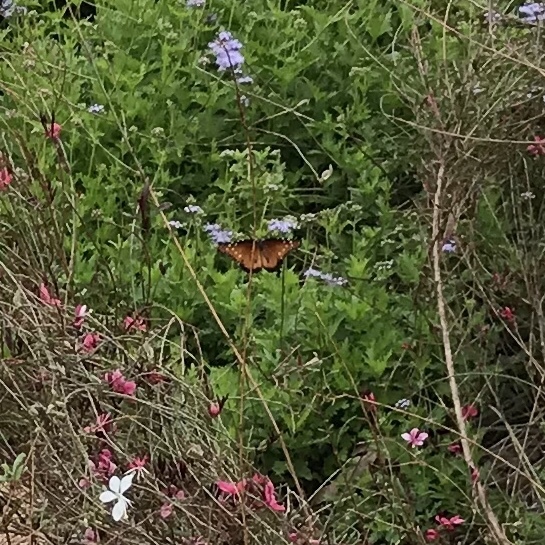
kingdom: Animalia
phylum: Arthropoda
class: Insecta
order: Lepidoptera
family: Nymphalidae
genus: Danaus
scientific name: Danaus gilippus
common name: Queen
